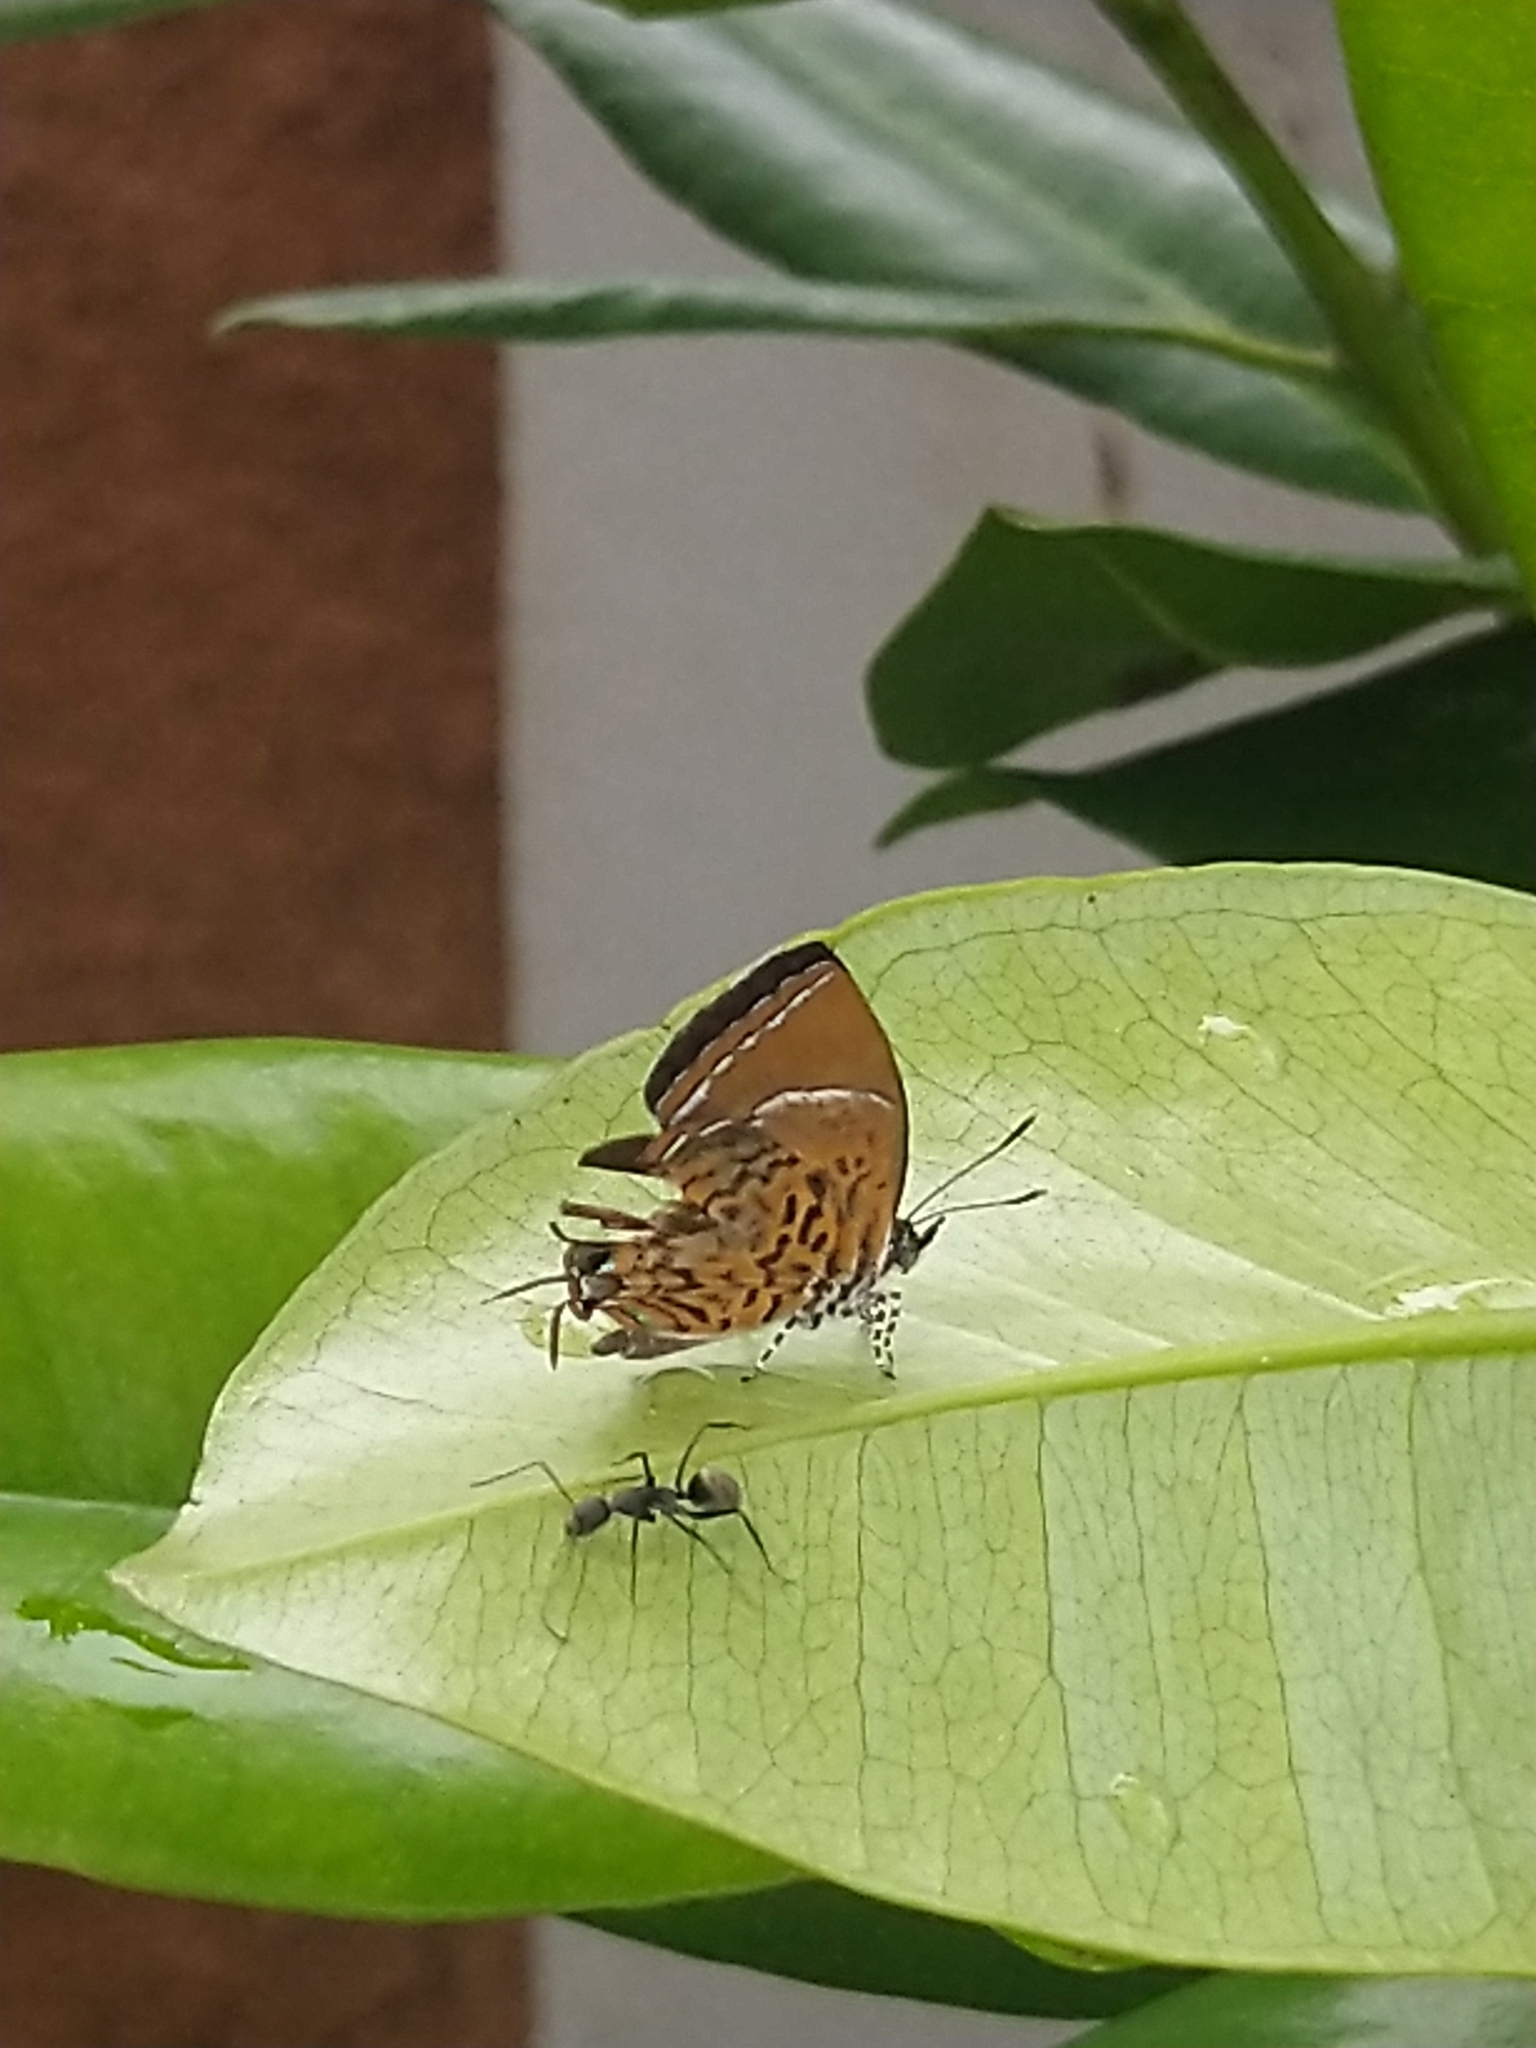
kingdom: Animalia
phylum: Arthropoda
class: Insecta
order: Lepidoptera
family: Lycaenidae
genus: Rathinda
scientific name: Rathinda amor
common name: Monkey puzzle
